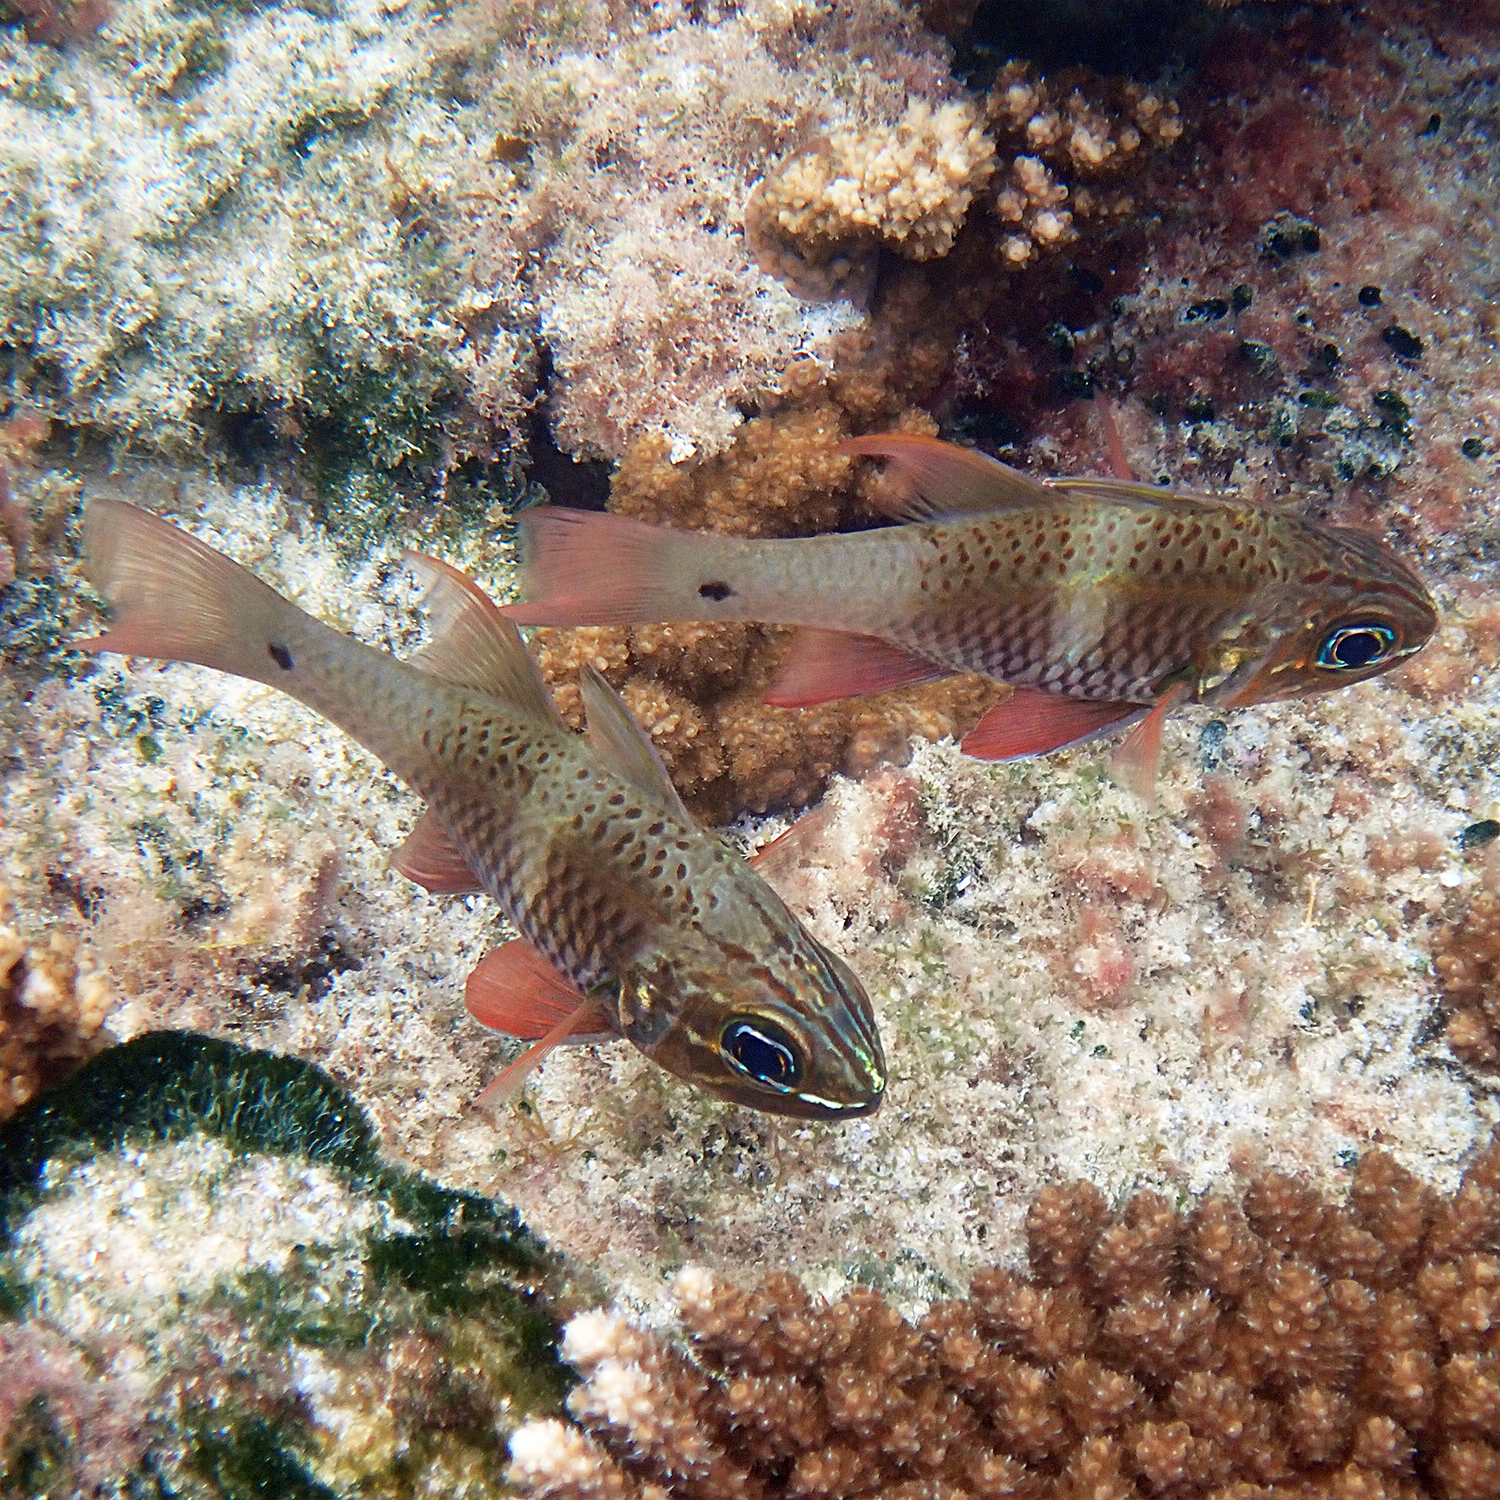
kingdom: Animalia
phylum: Chordata
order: Perciformes
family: Apogonidae
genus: Ostorhinchus
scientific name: Ostorhinchus norfolcensis
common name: Norfolk cardinalfish
